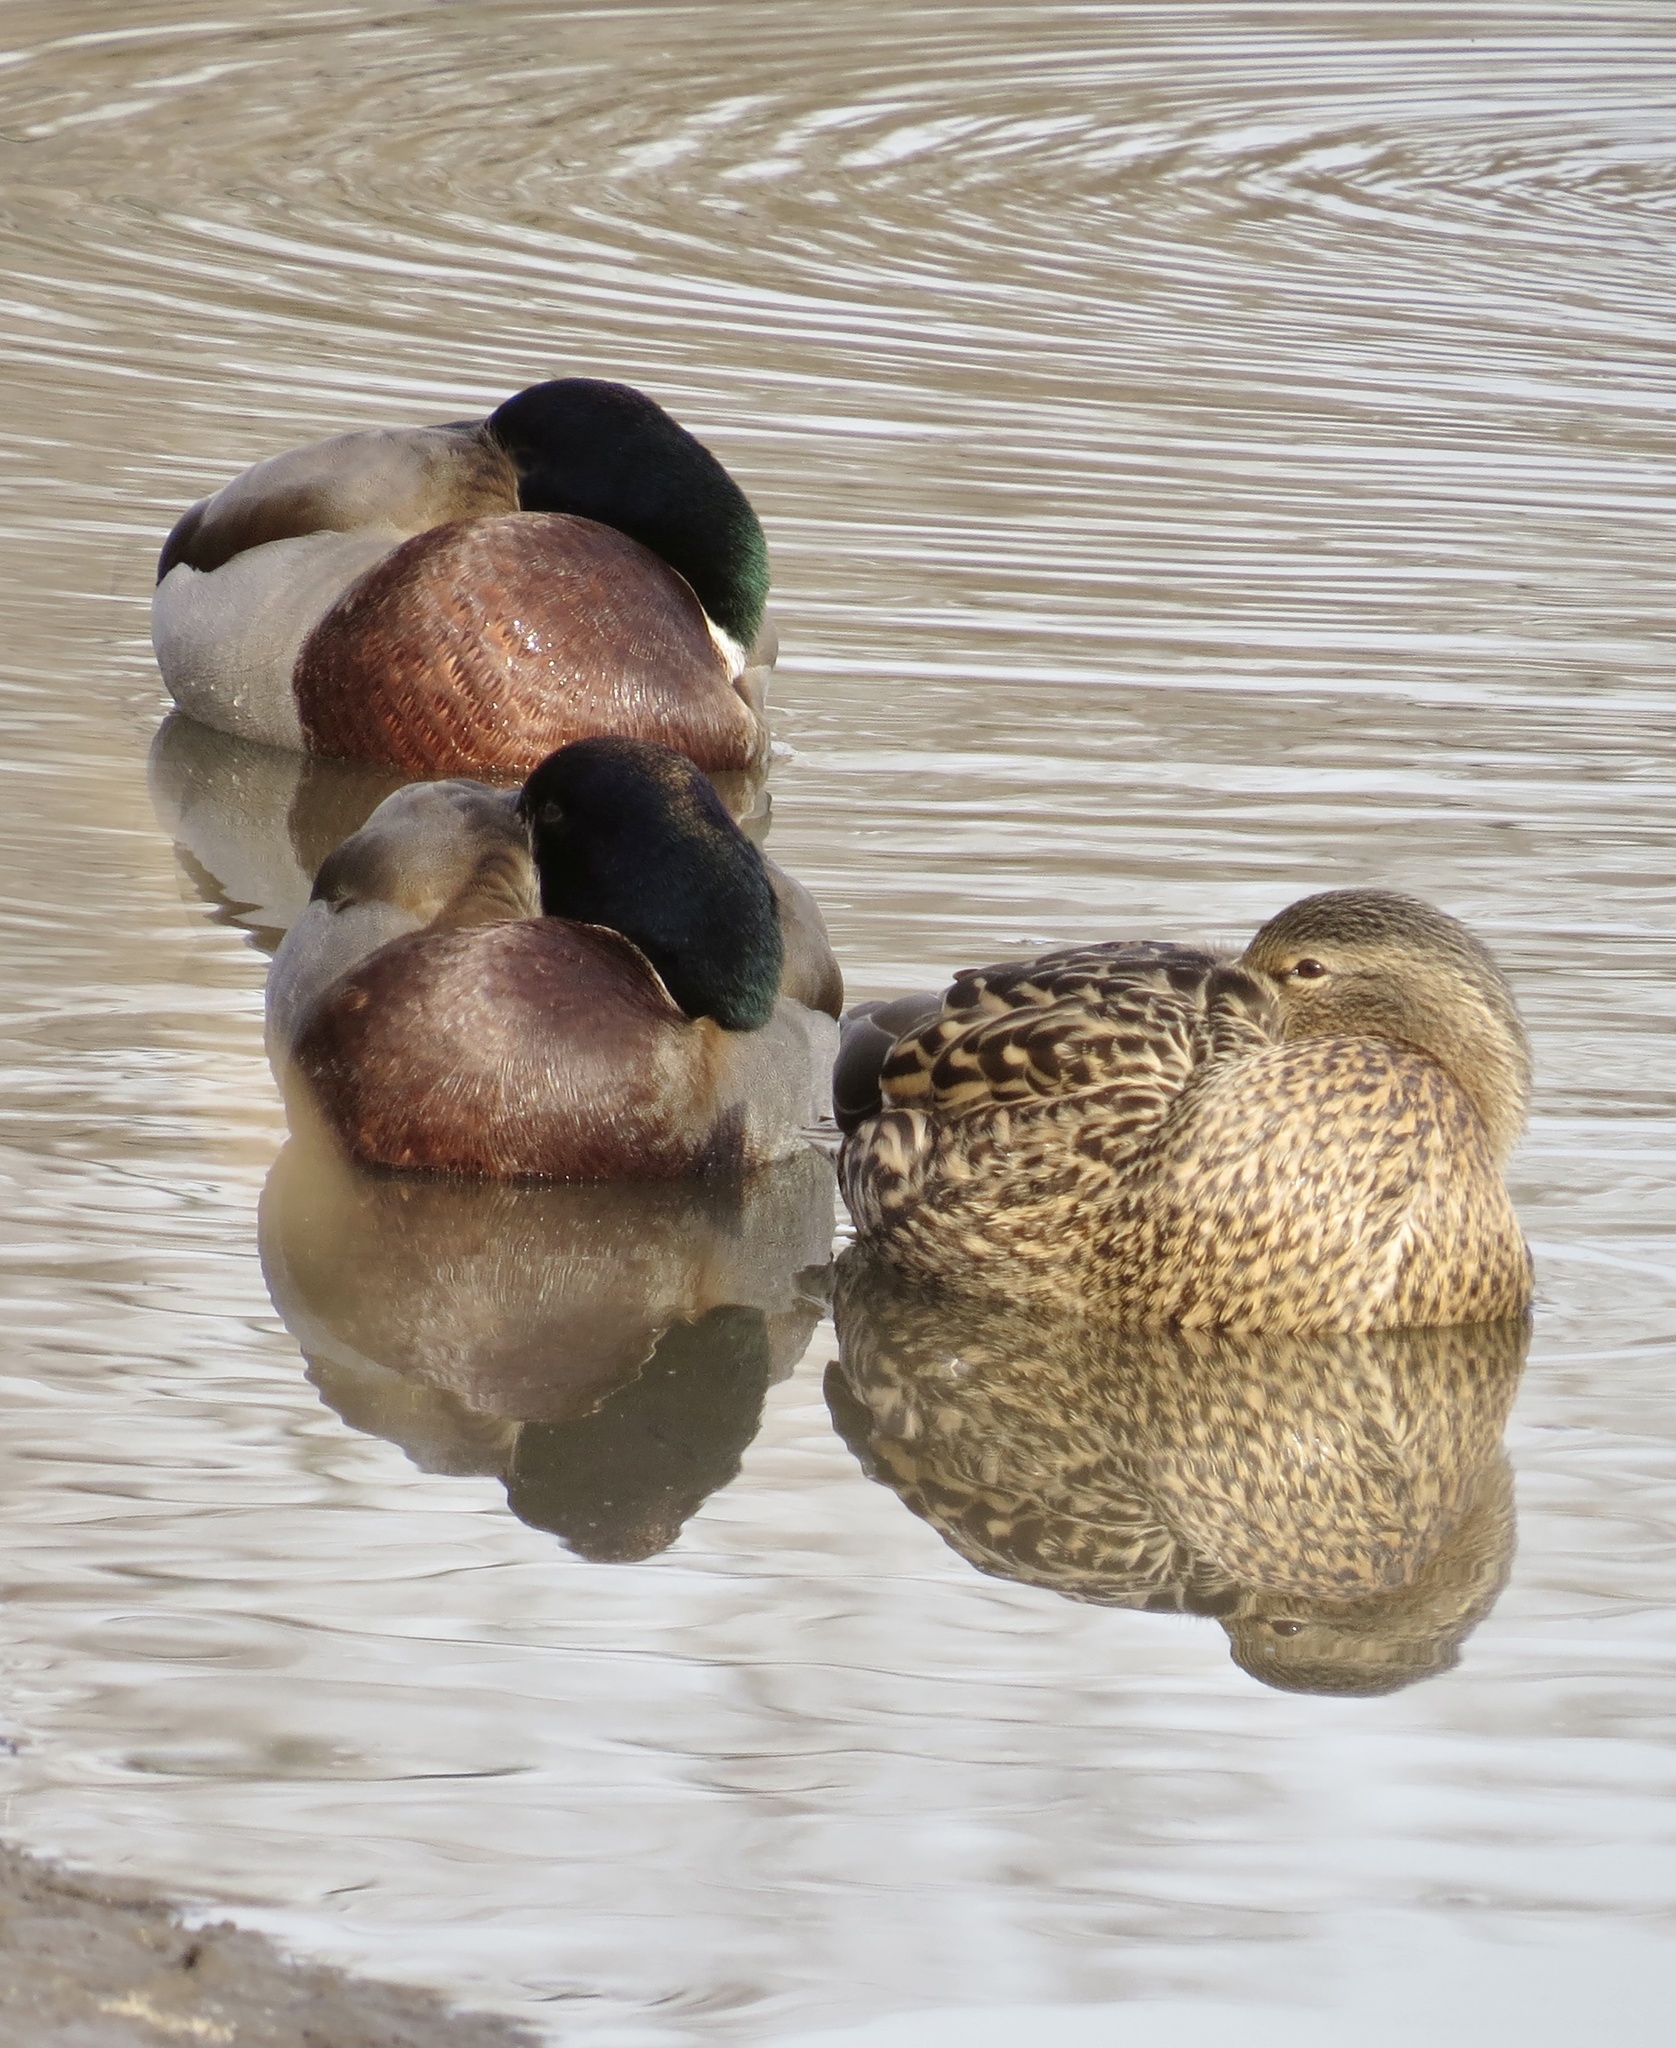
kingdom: Animalia
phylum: Chordata
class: Aves
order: Anseriformes
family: Anatidae
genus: Anas
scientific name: Anas platyrhynchos
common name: Mallard
